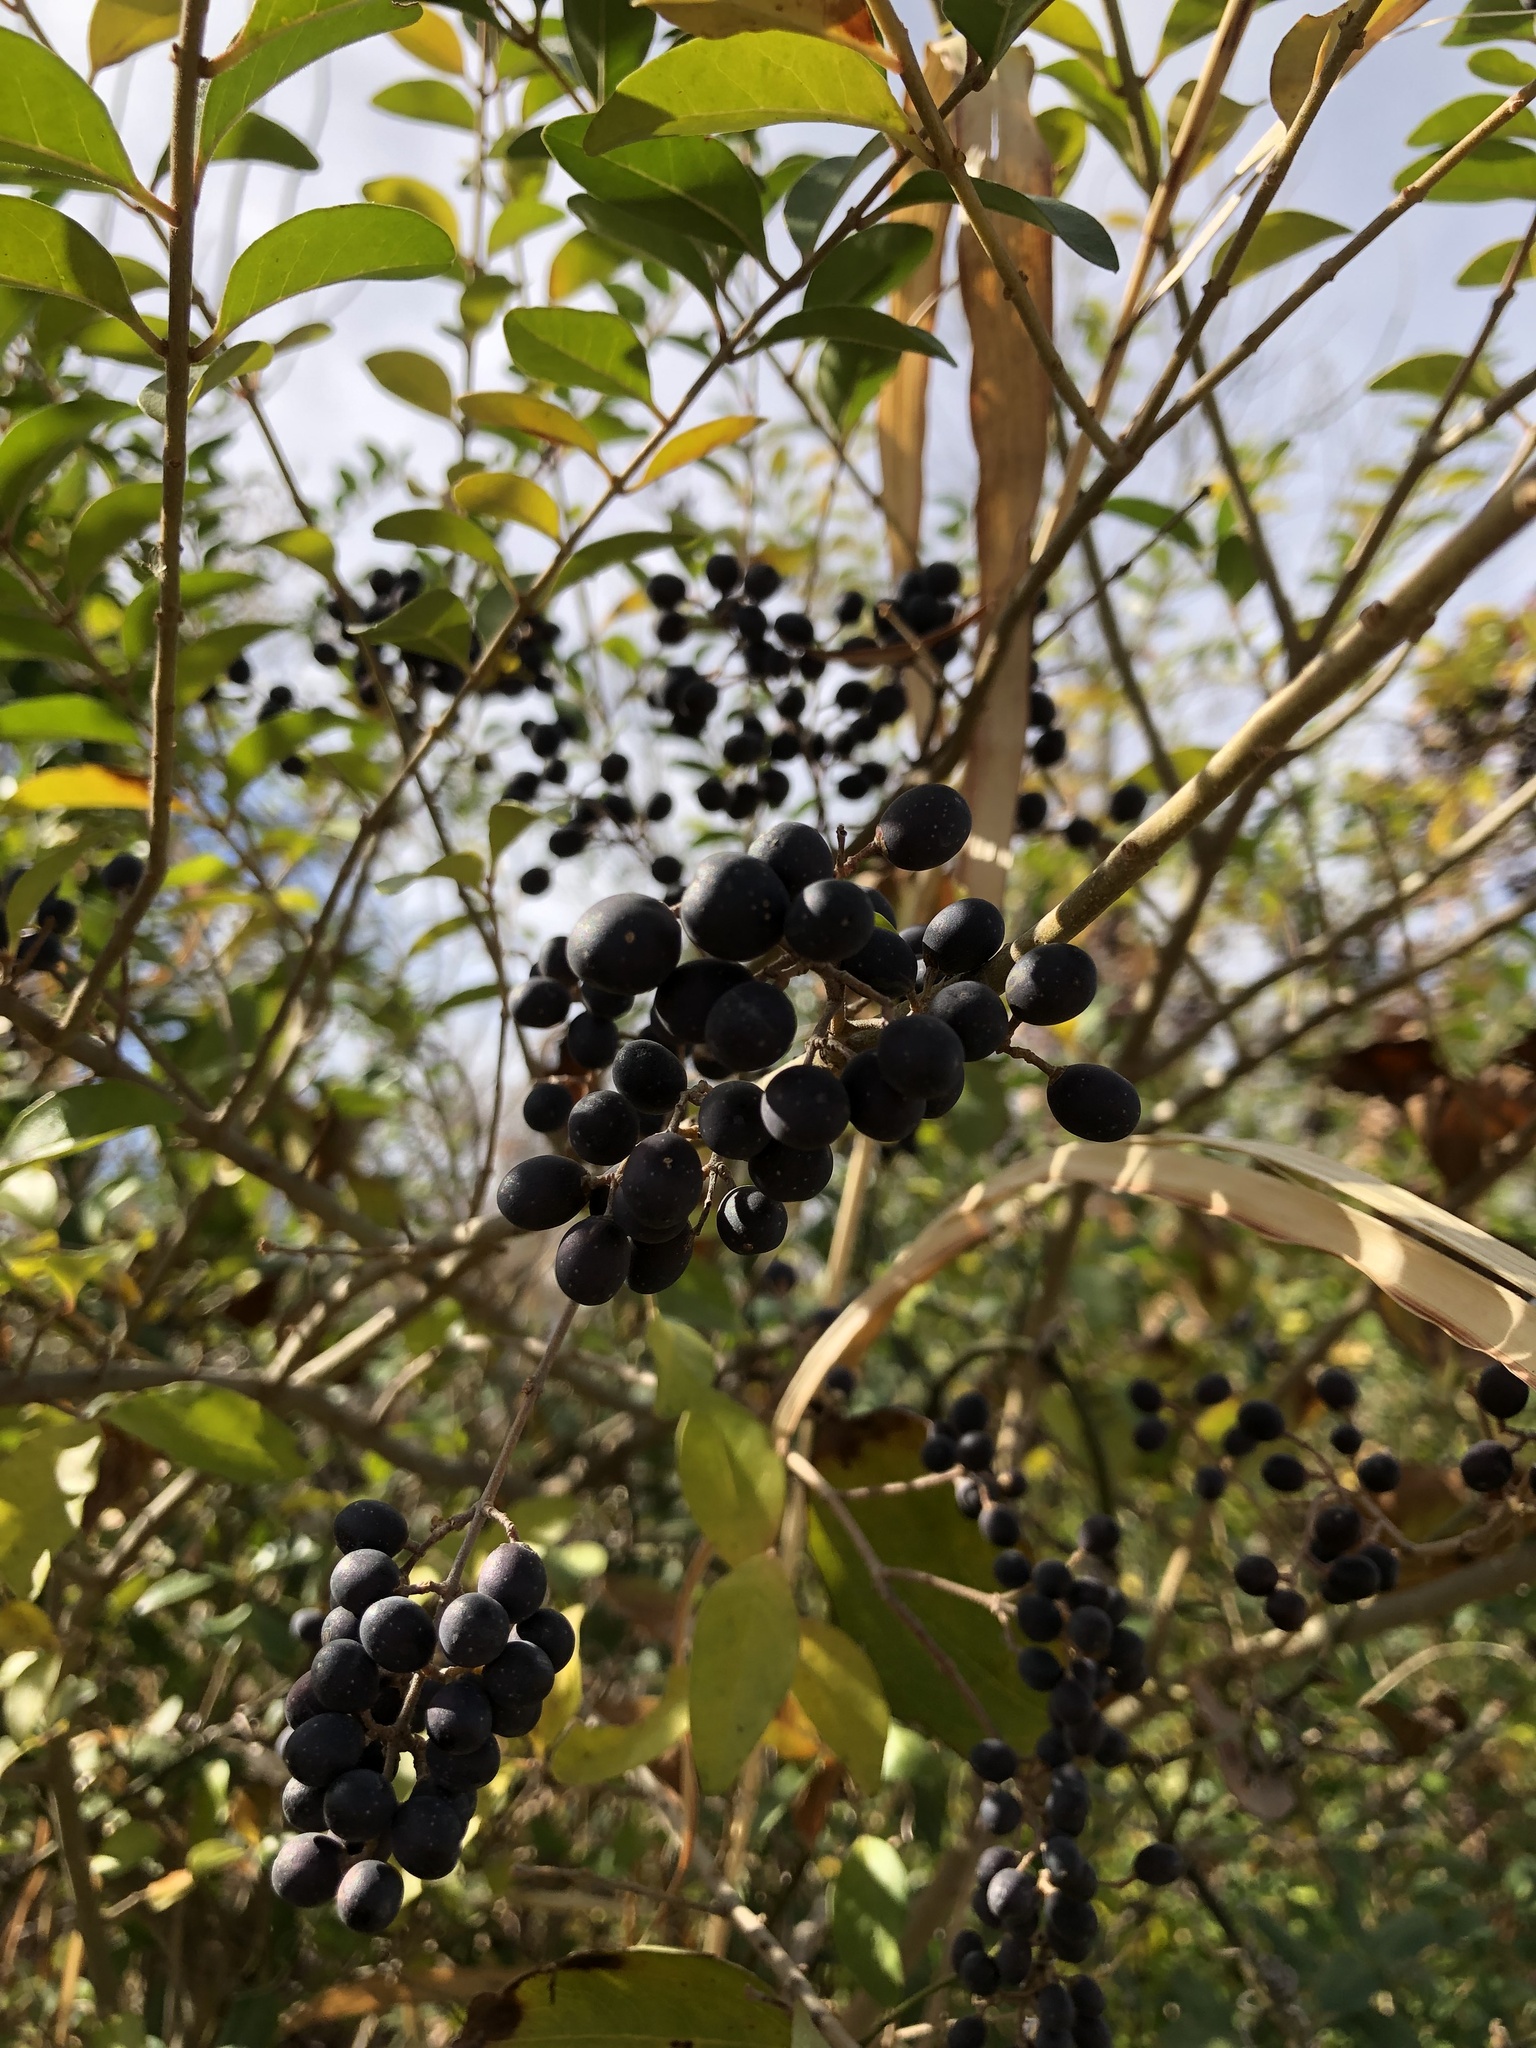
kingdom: Plantae
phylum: Tracheophyta
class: Magnoliopsida
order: Lamiales
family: Oleaceae
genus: Ligustrum
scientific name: Ligustrum sinense
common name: Chinese privet
